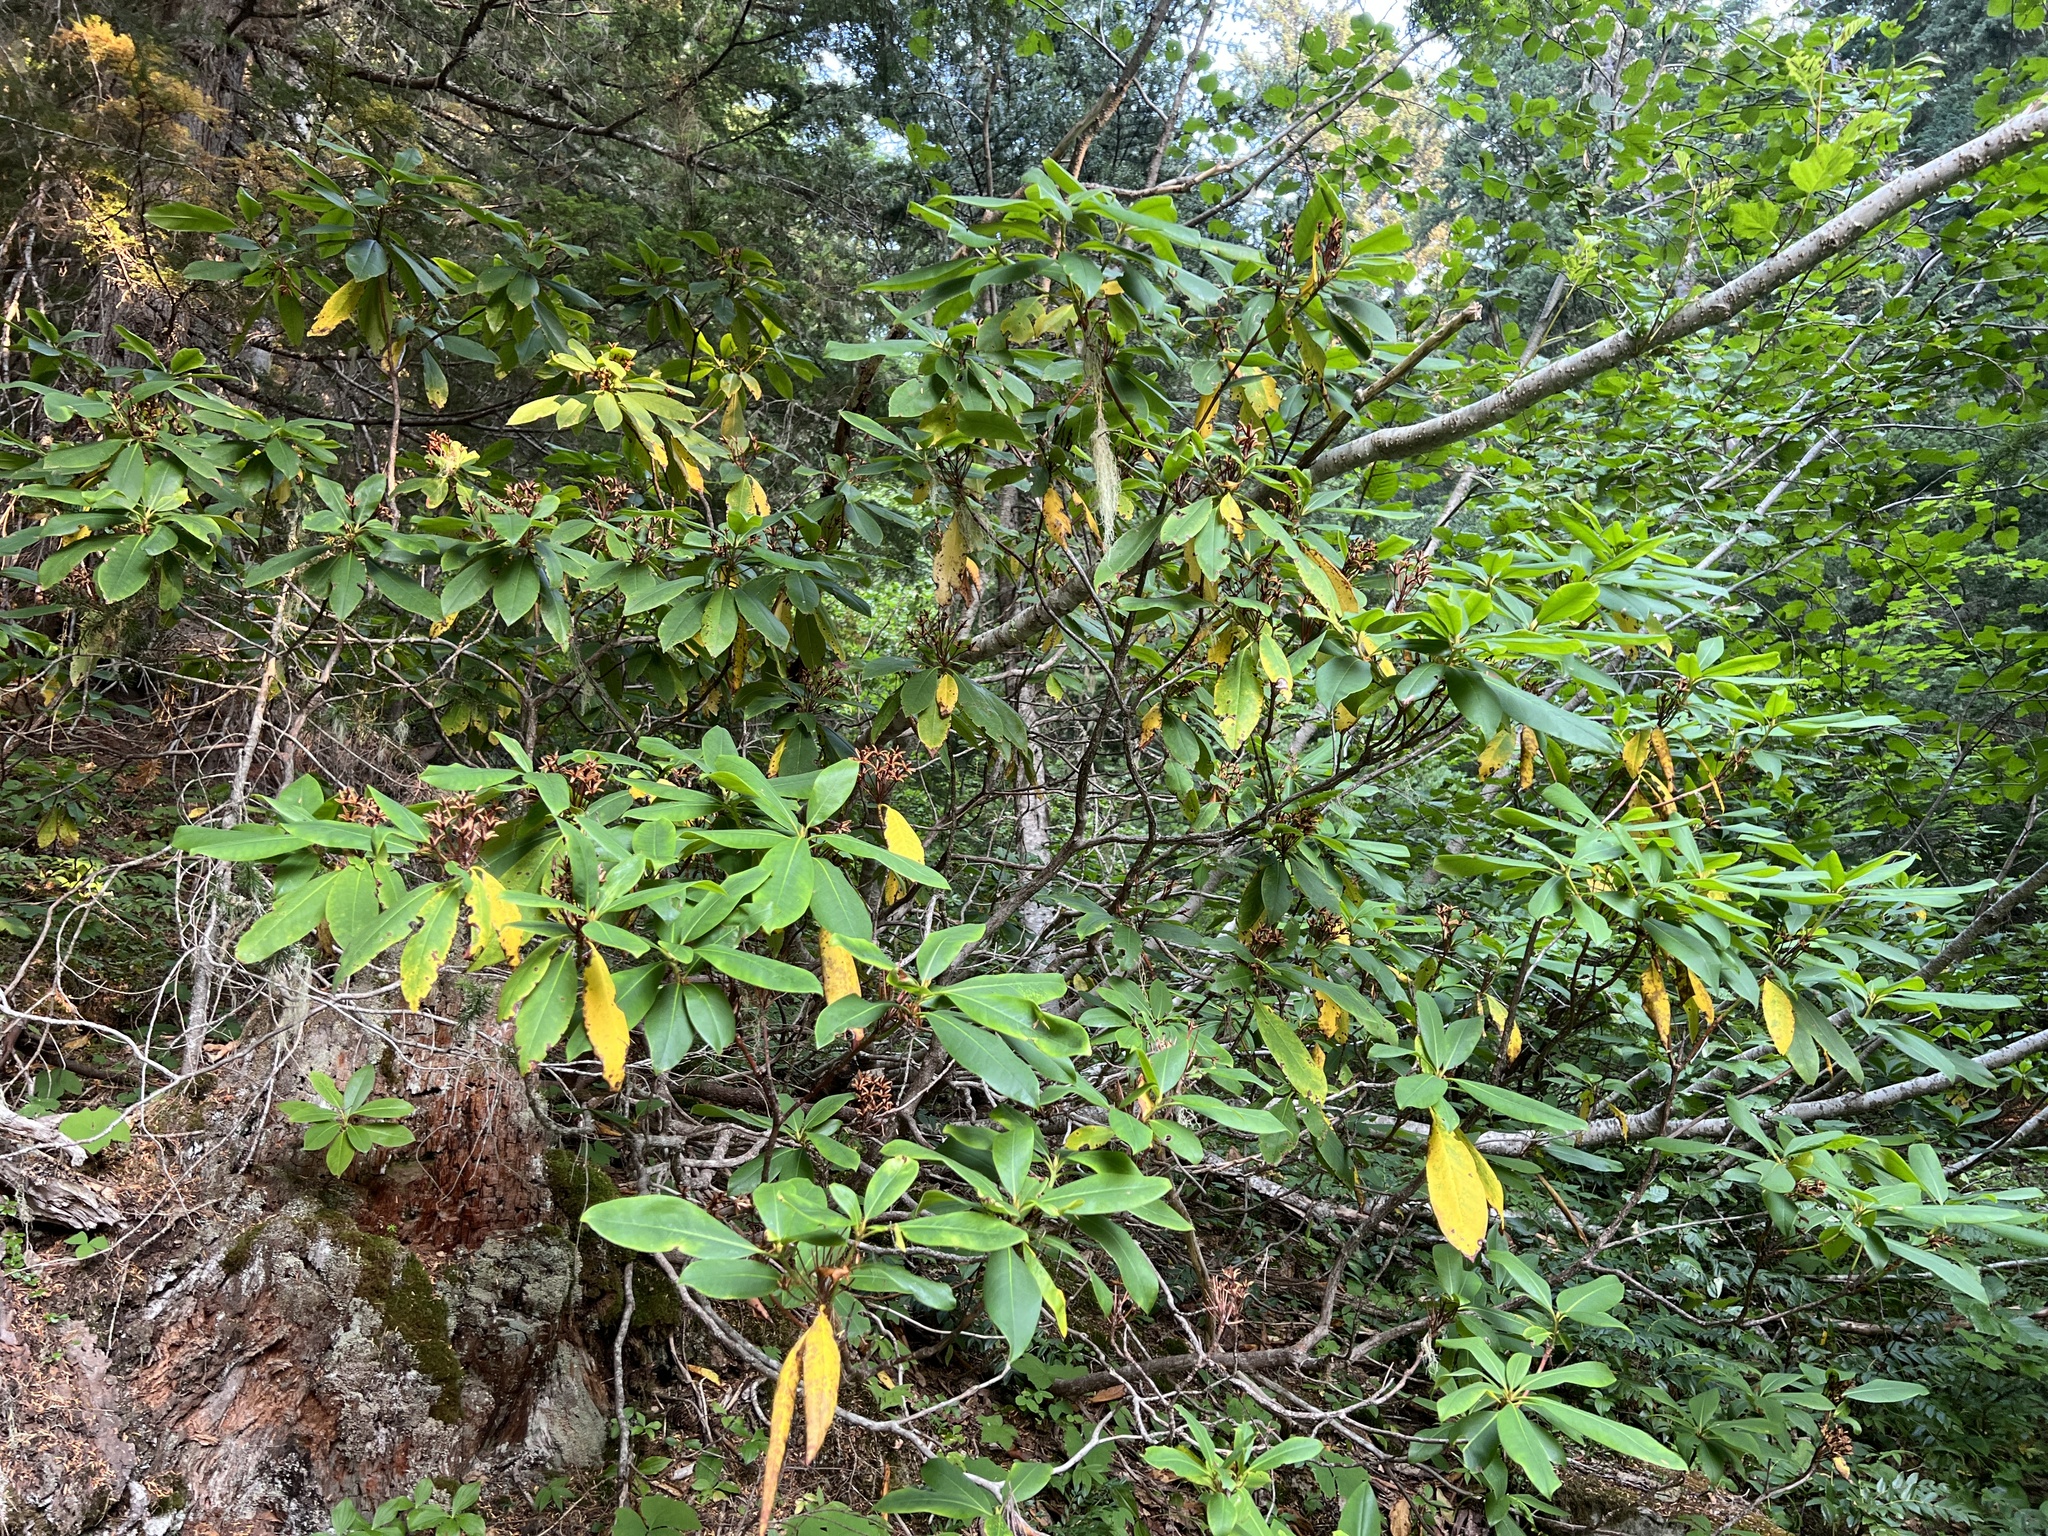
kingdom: Plantae
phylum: Tracheophyta
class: Magnoliopsida
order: Ericales
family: Ericaceae
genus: Rhododendron
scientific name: Rhododendron macrophyllum
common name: California rose bay
